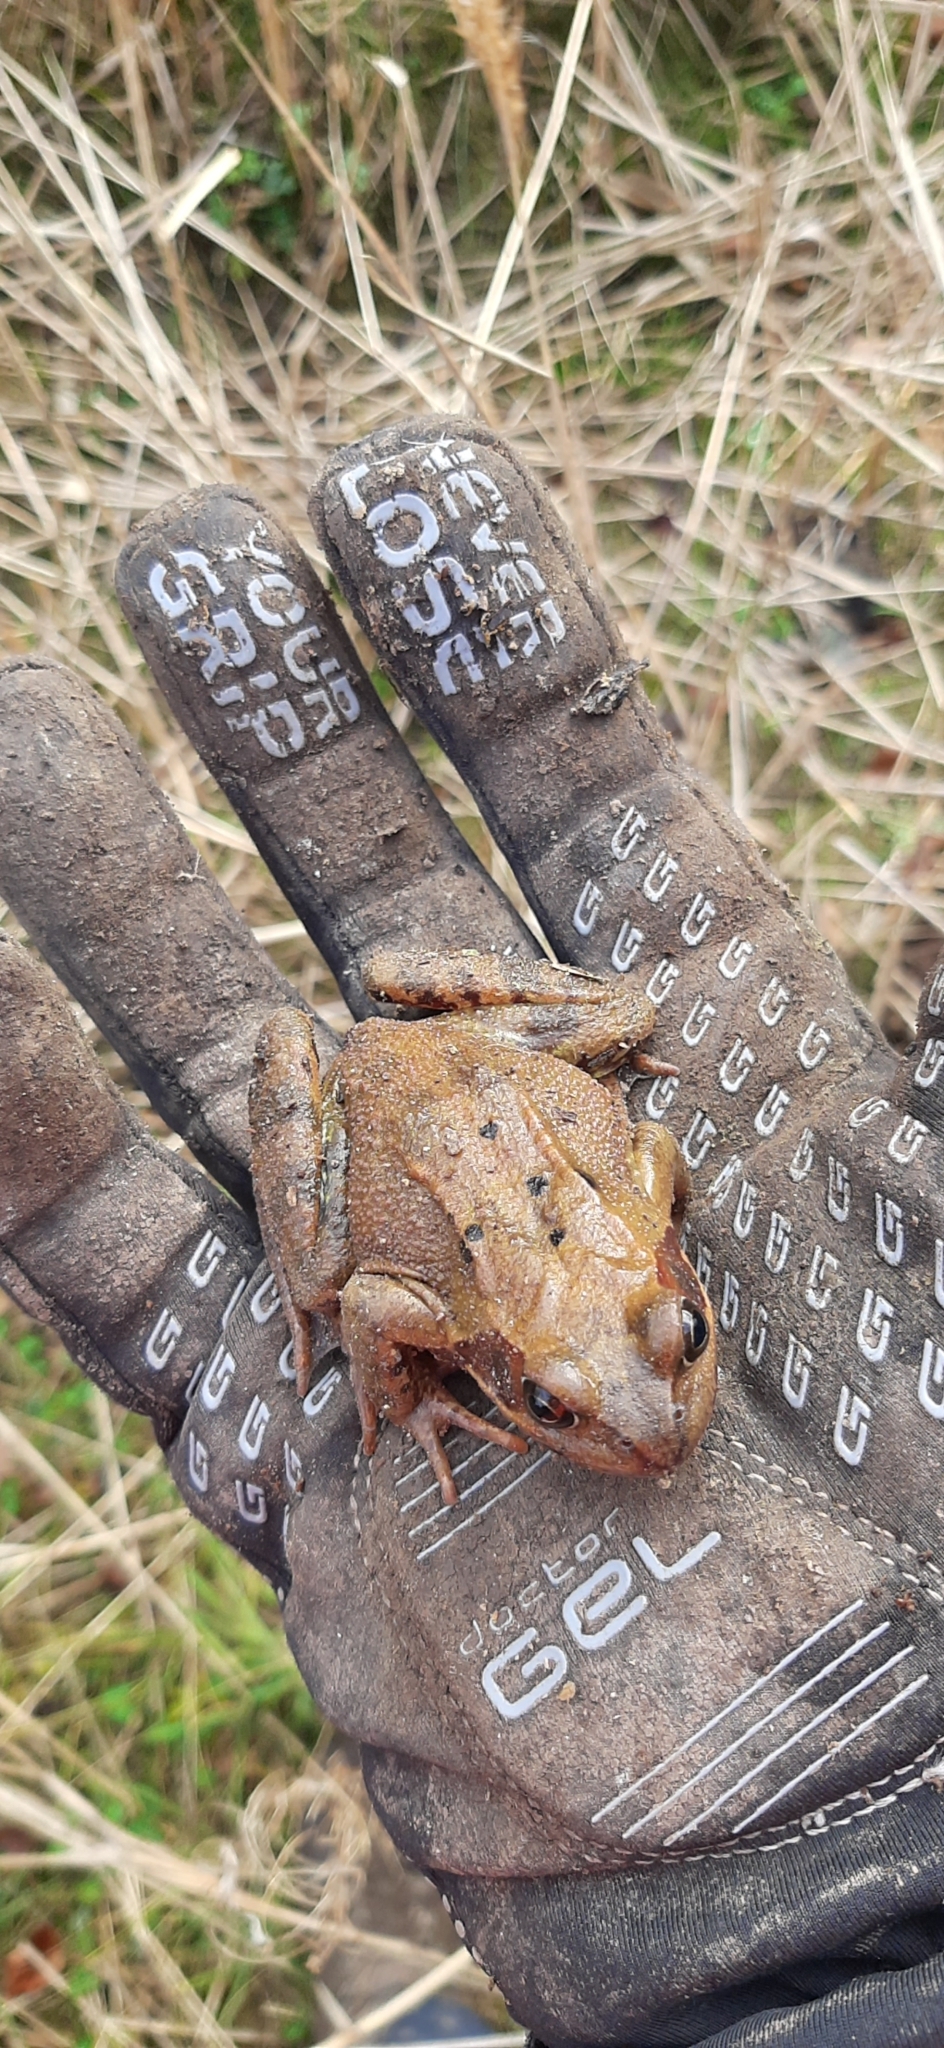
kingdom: Animalia
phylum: Chordata
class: Amphibia
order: Anura
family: Ranidae
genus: Rana
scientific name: Rana temporaria
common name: Common frog
